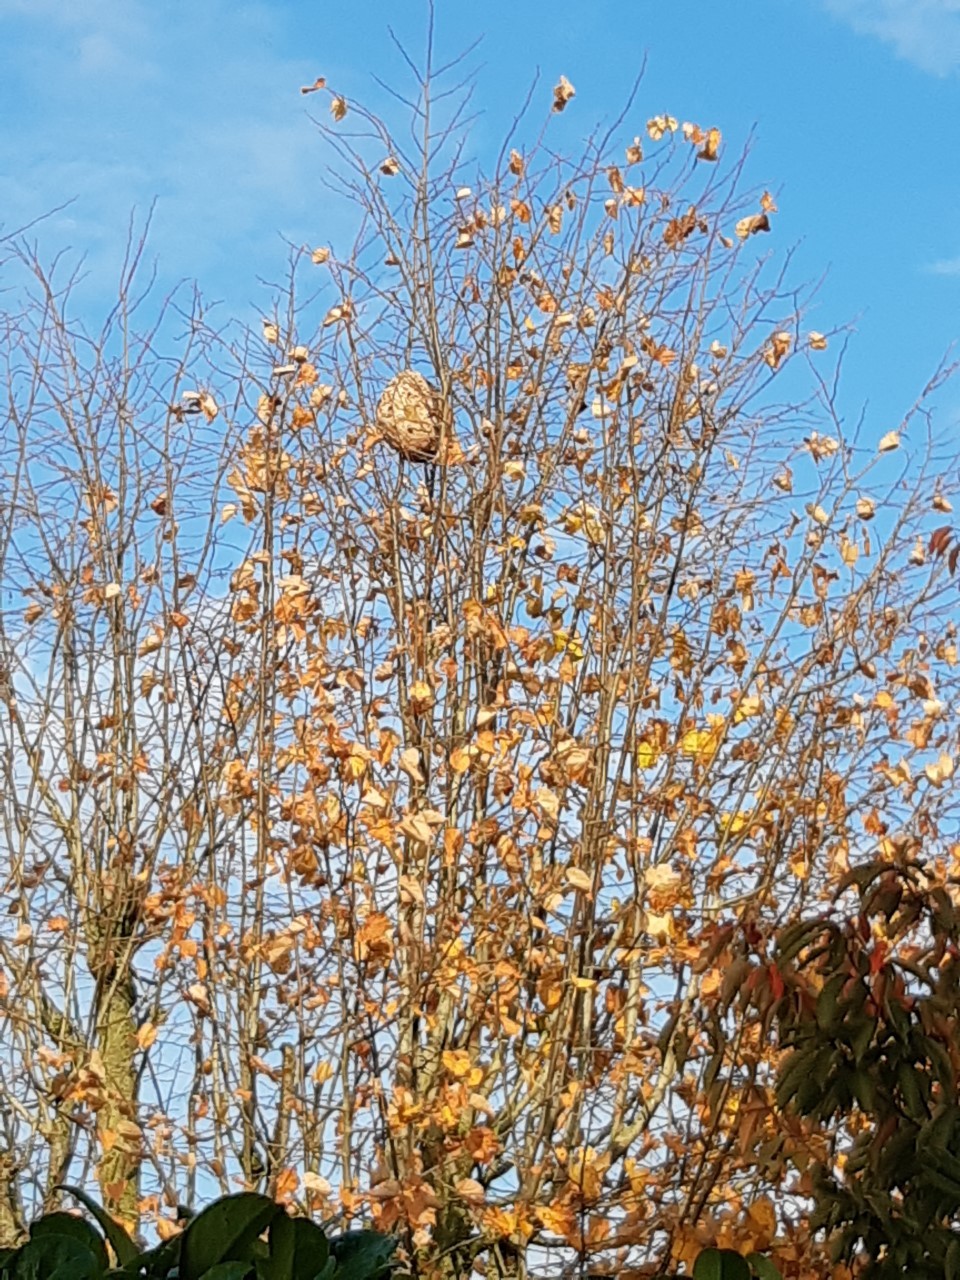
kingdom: Animalia
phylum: Arthropoda
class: Insecta
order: Hymenoptera
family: Vespidae
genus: Vespa
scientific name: Vespa velutina
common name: Asian hornet
